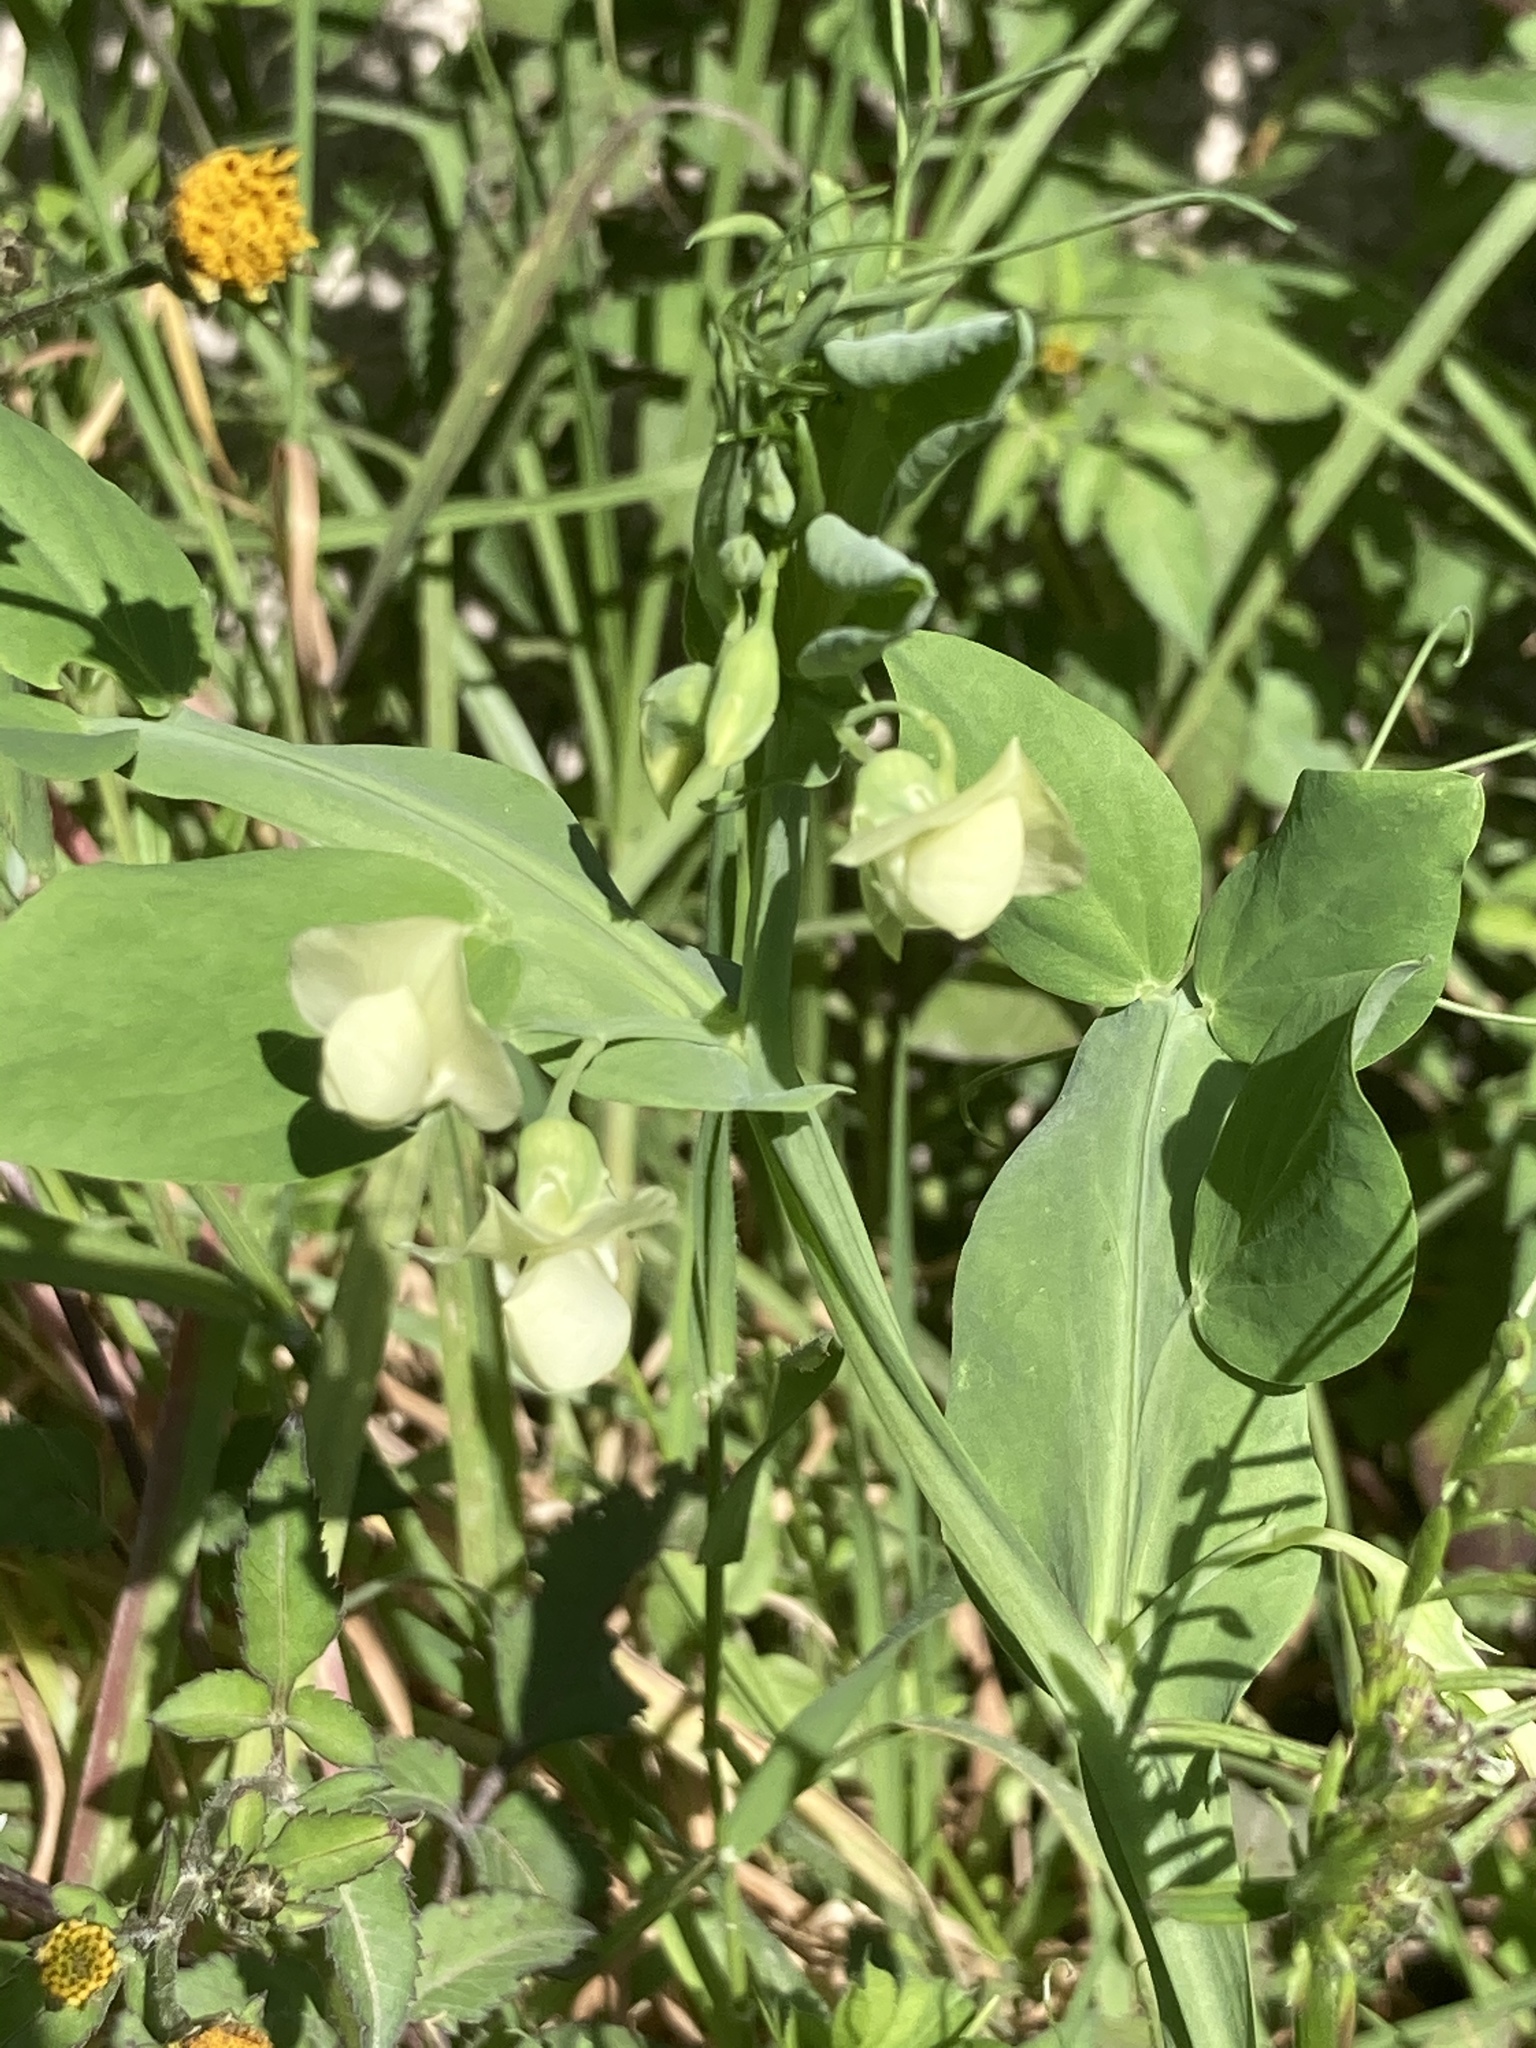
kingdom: Plantae
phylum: Tracheophyta
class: Magnoliopsida
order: Fabales
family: Fabaceae
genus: Lathyrus
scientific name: Lathyrus ochrus
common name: Winged vetchling
